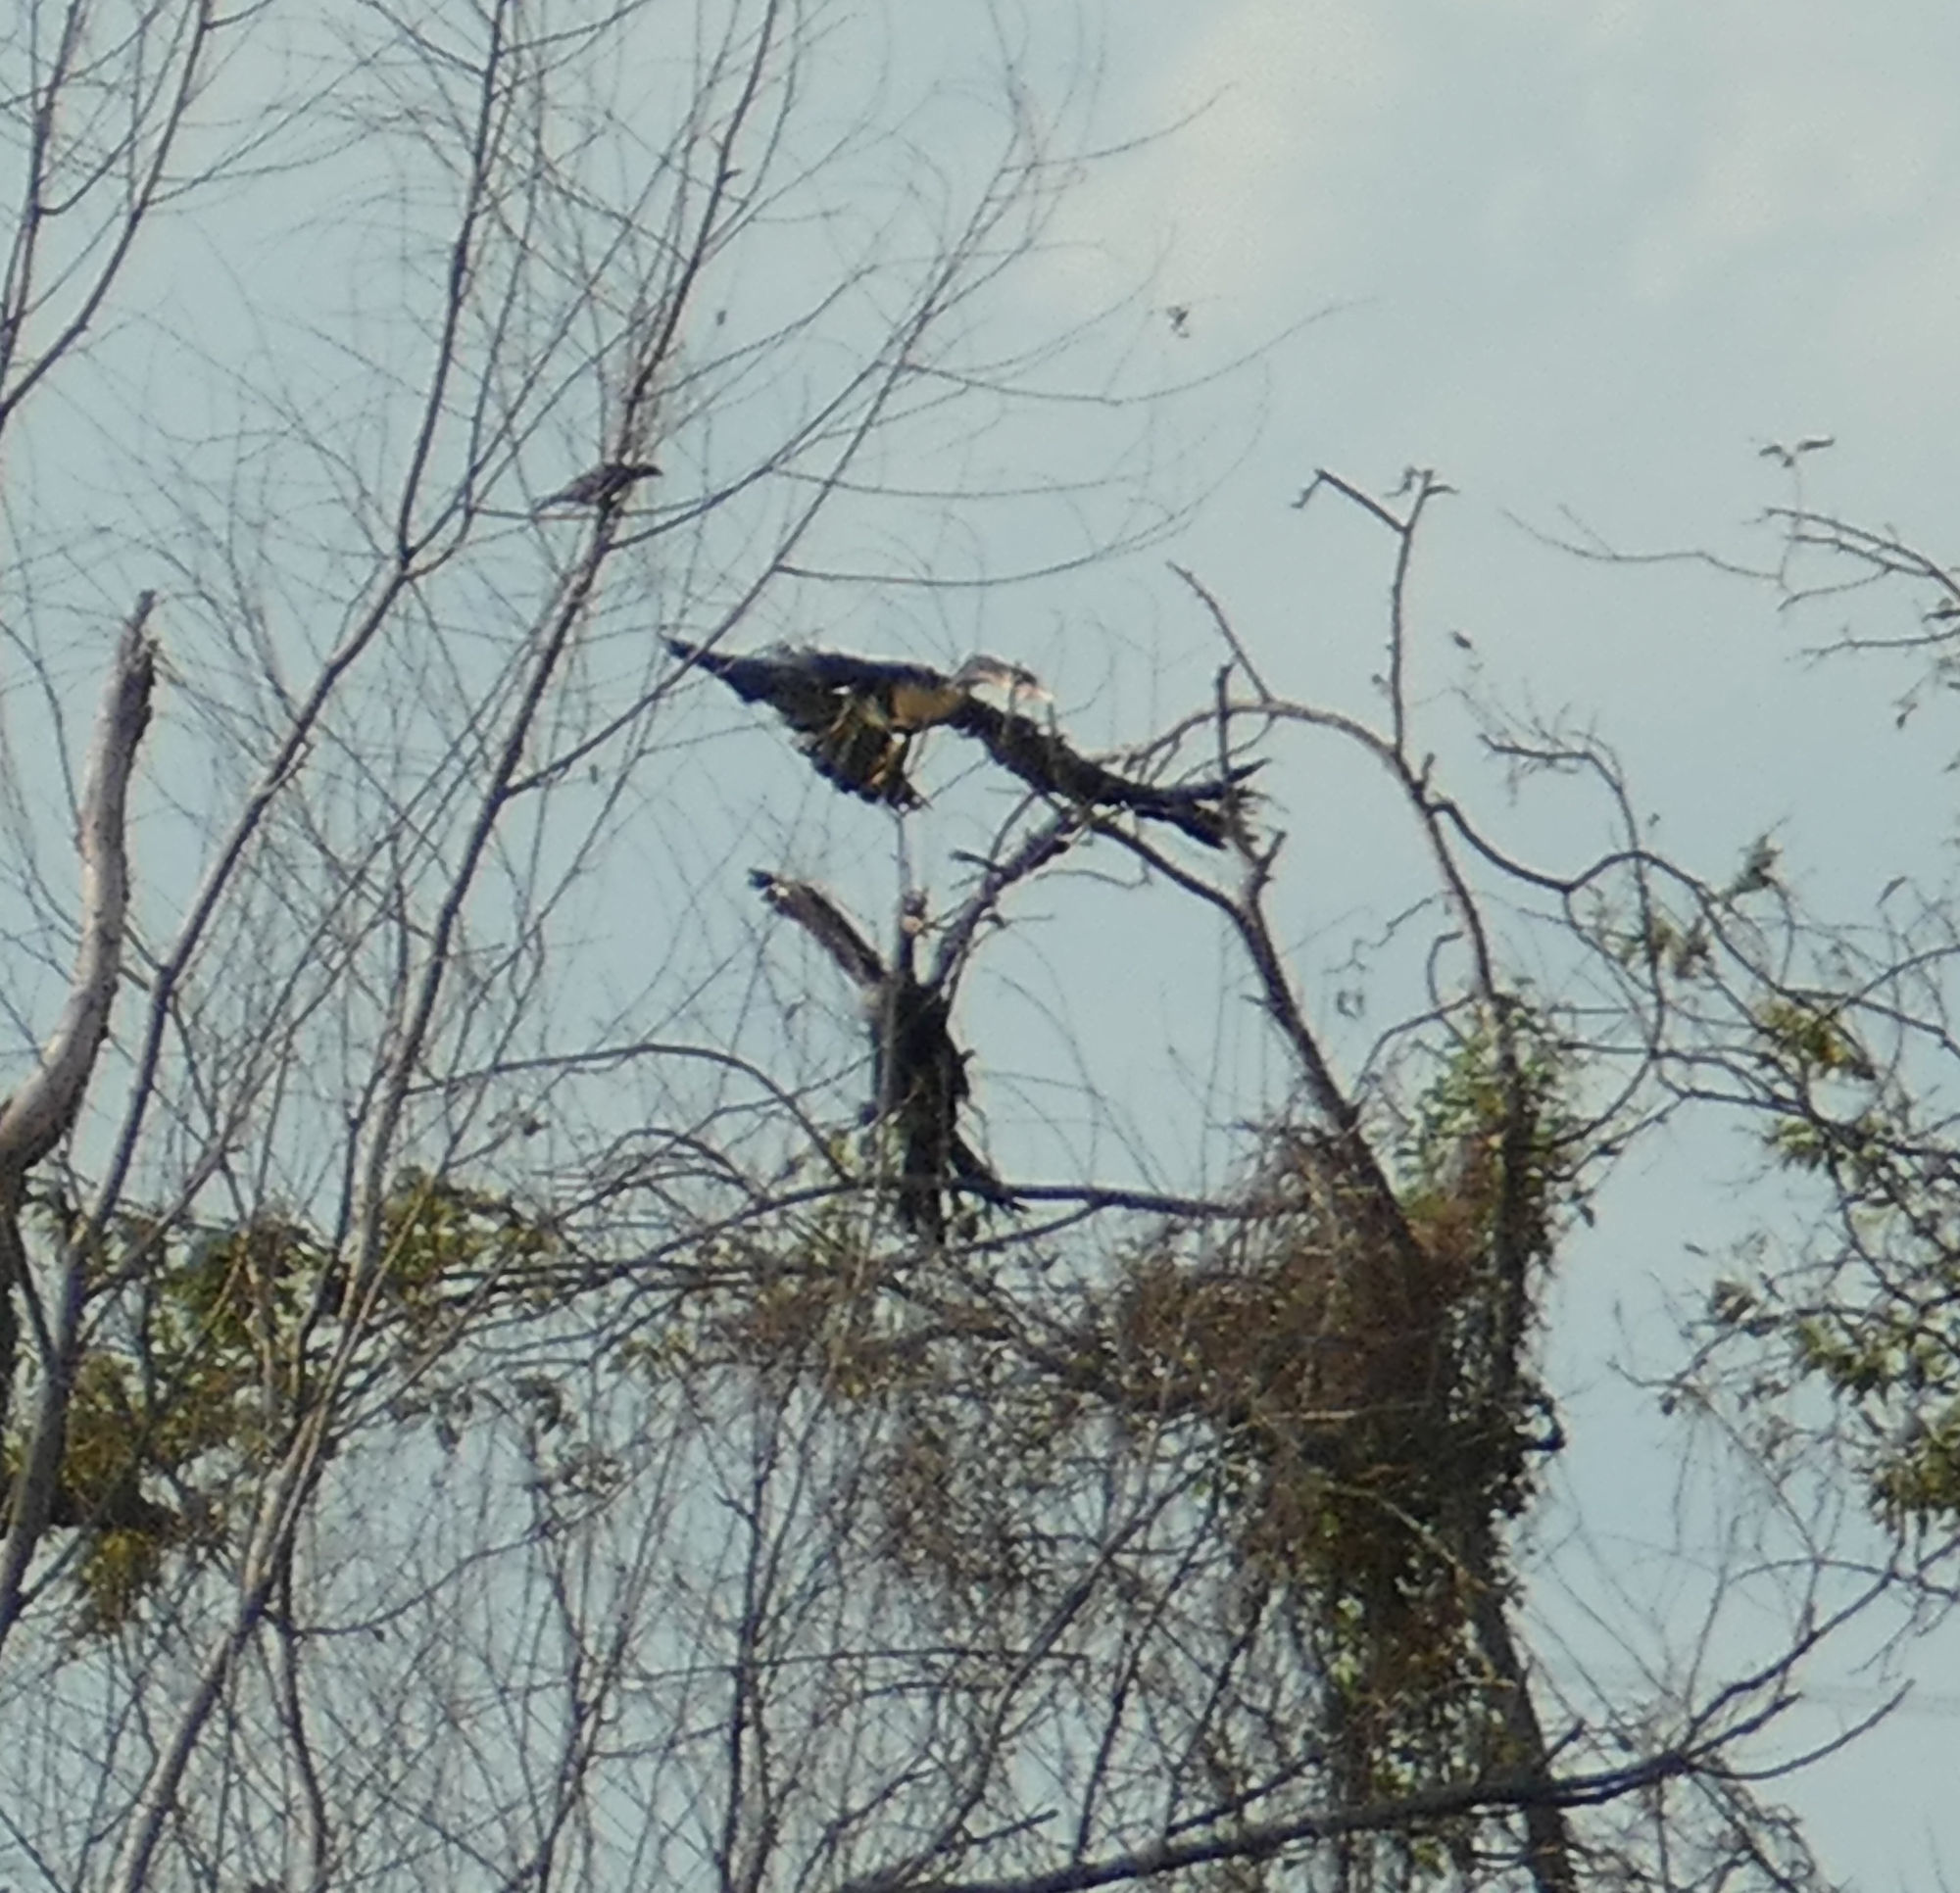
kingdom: Animalia
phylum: Chordata
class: Aves
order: Suliformes
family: Anhingidae
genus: Anhinga
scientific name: Anhinga anhinga
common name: Anhinga
